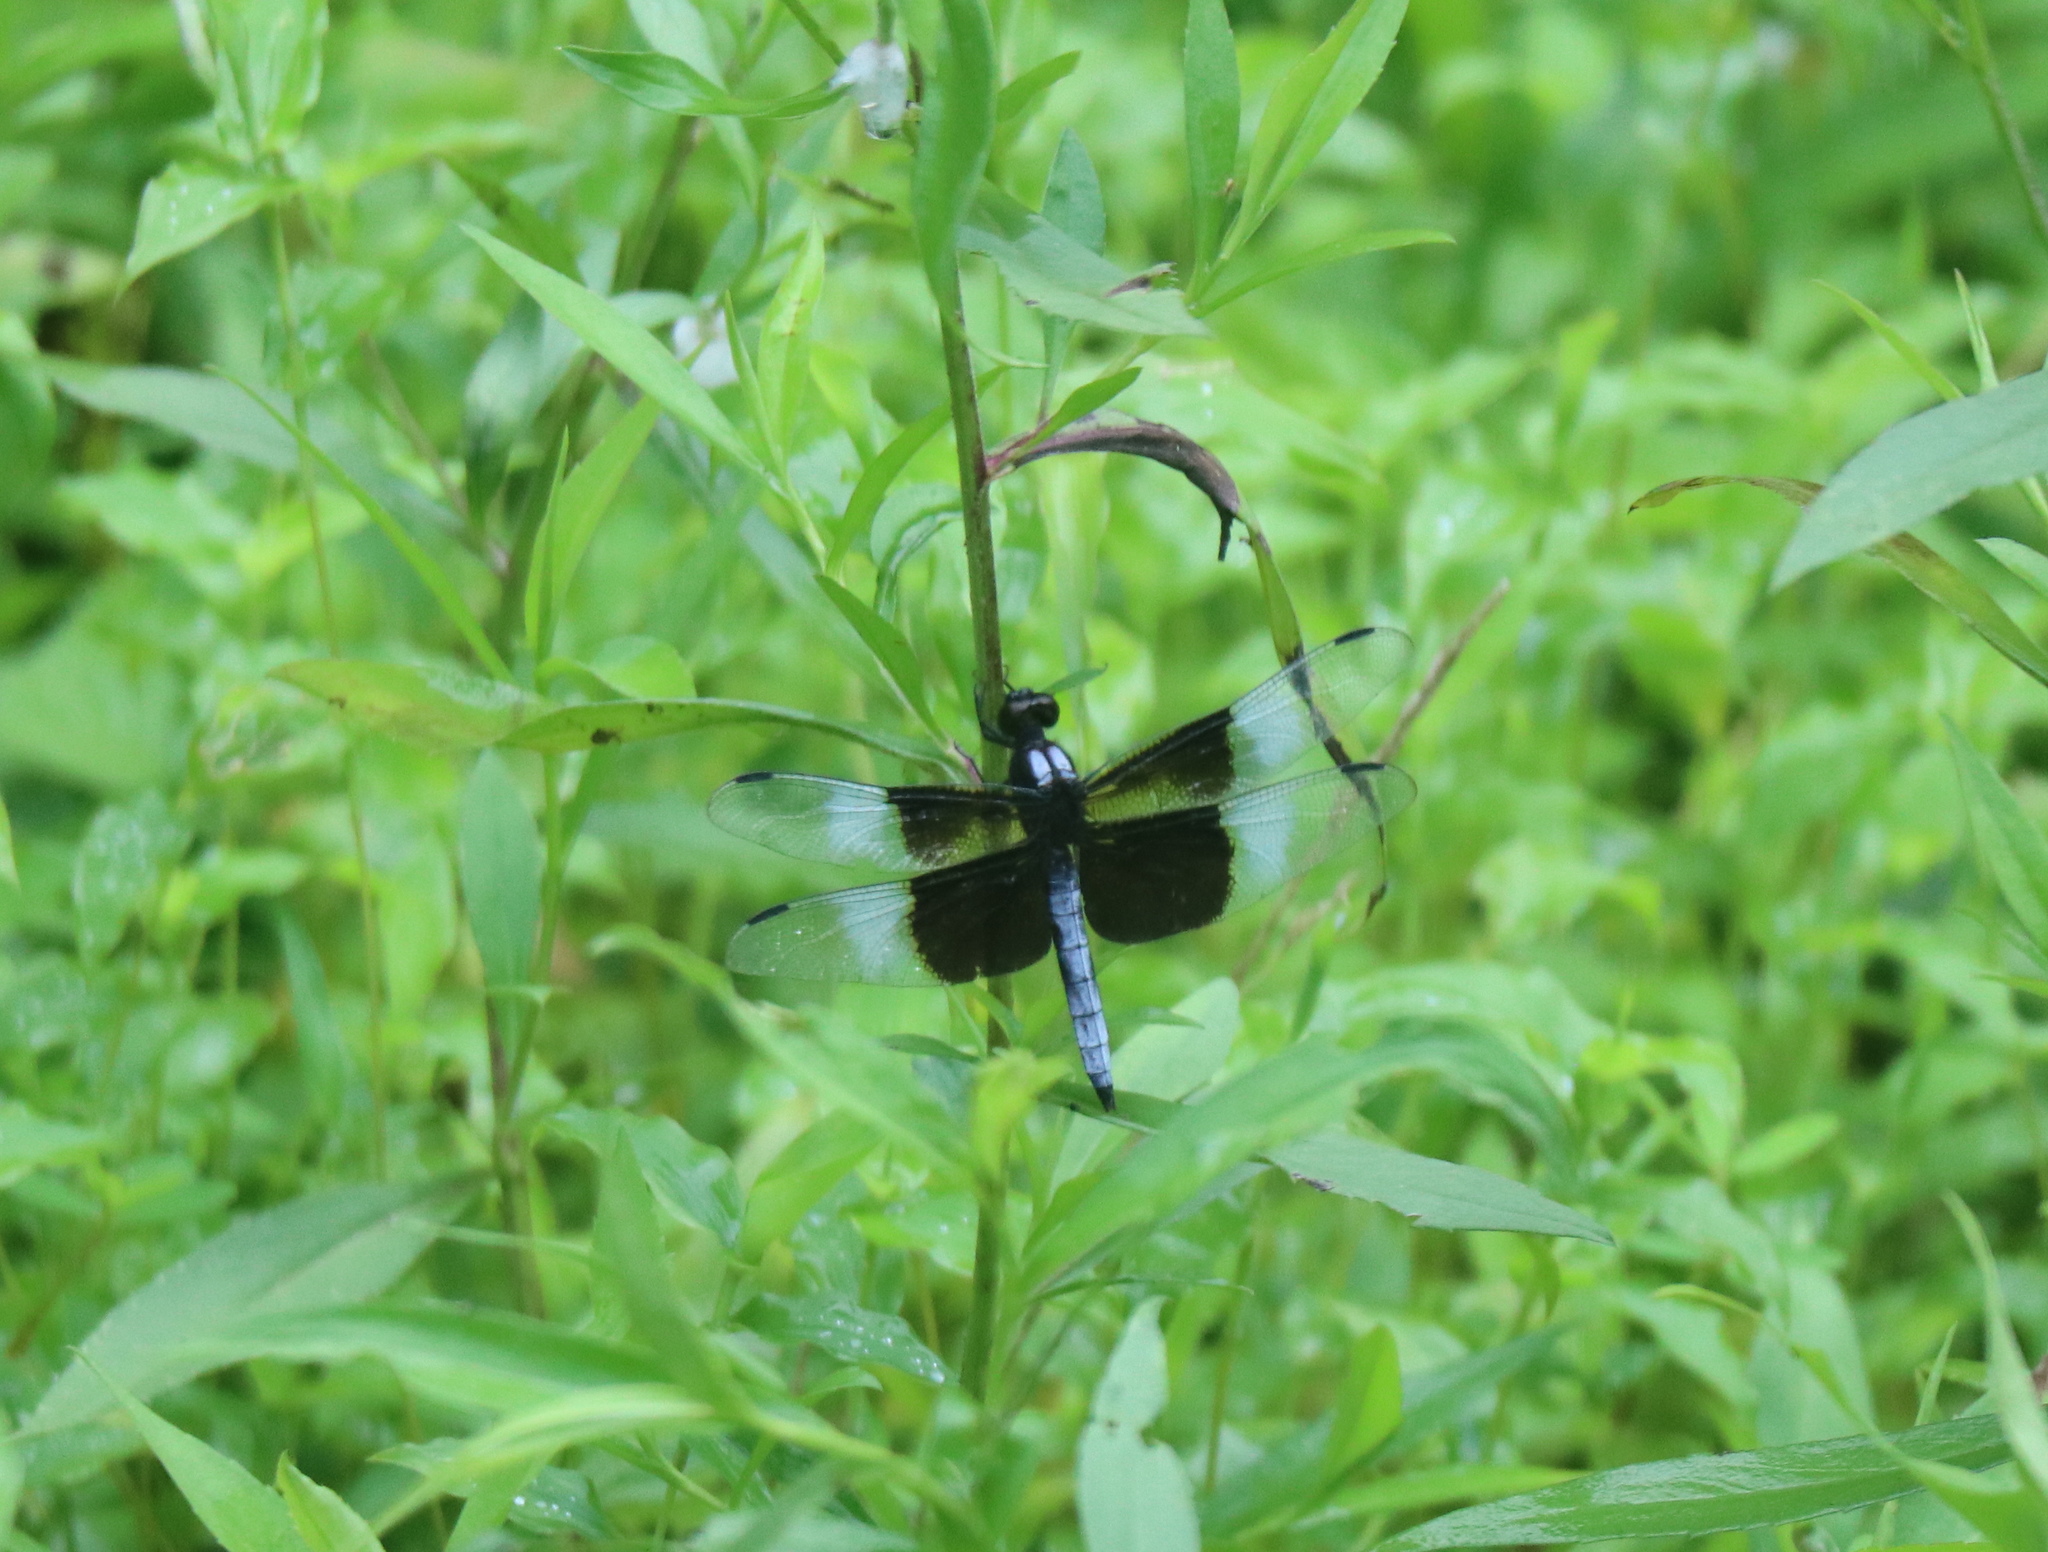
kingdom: Animalia
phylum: Arthropoda
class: Insecta
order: Odonata
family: Libellulidae
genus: Libellula
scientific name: Libellula luctuosa
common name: Widow skimmer
